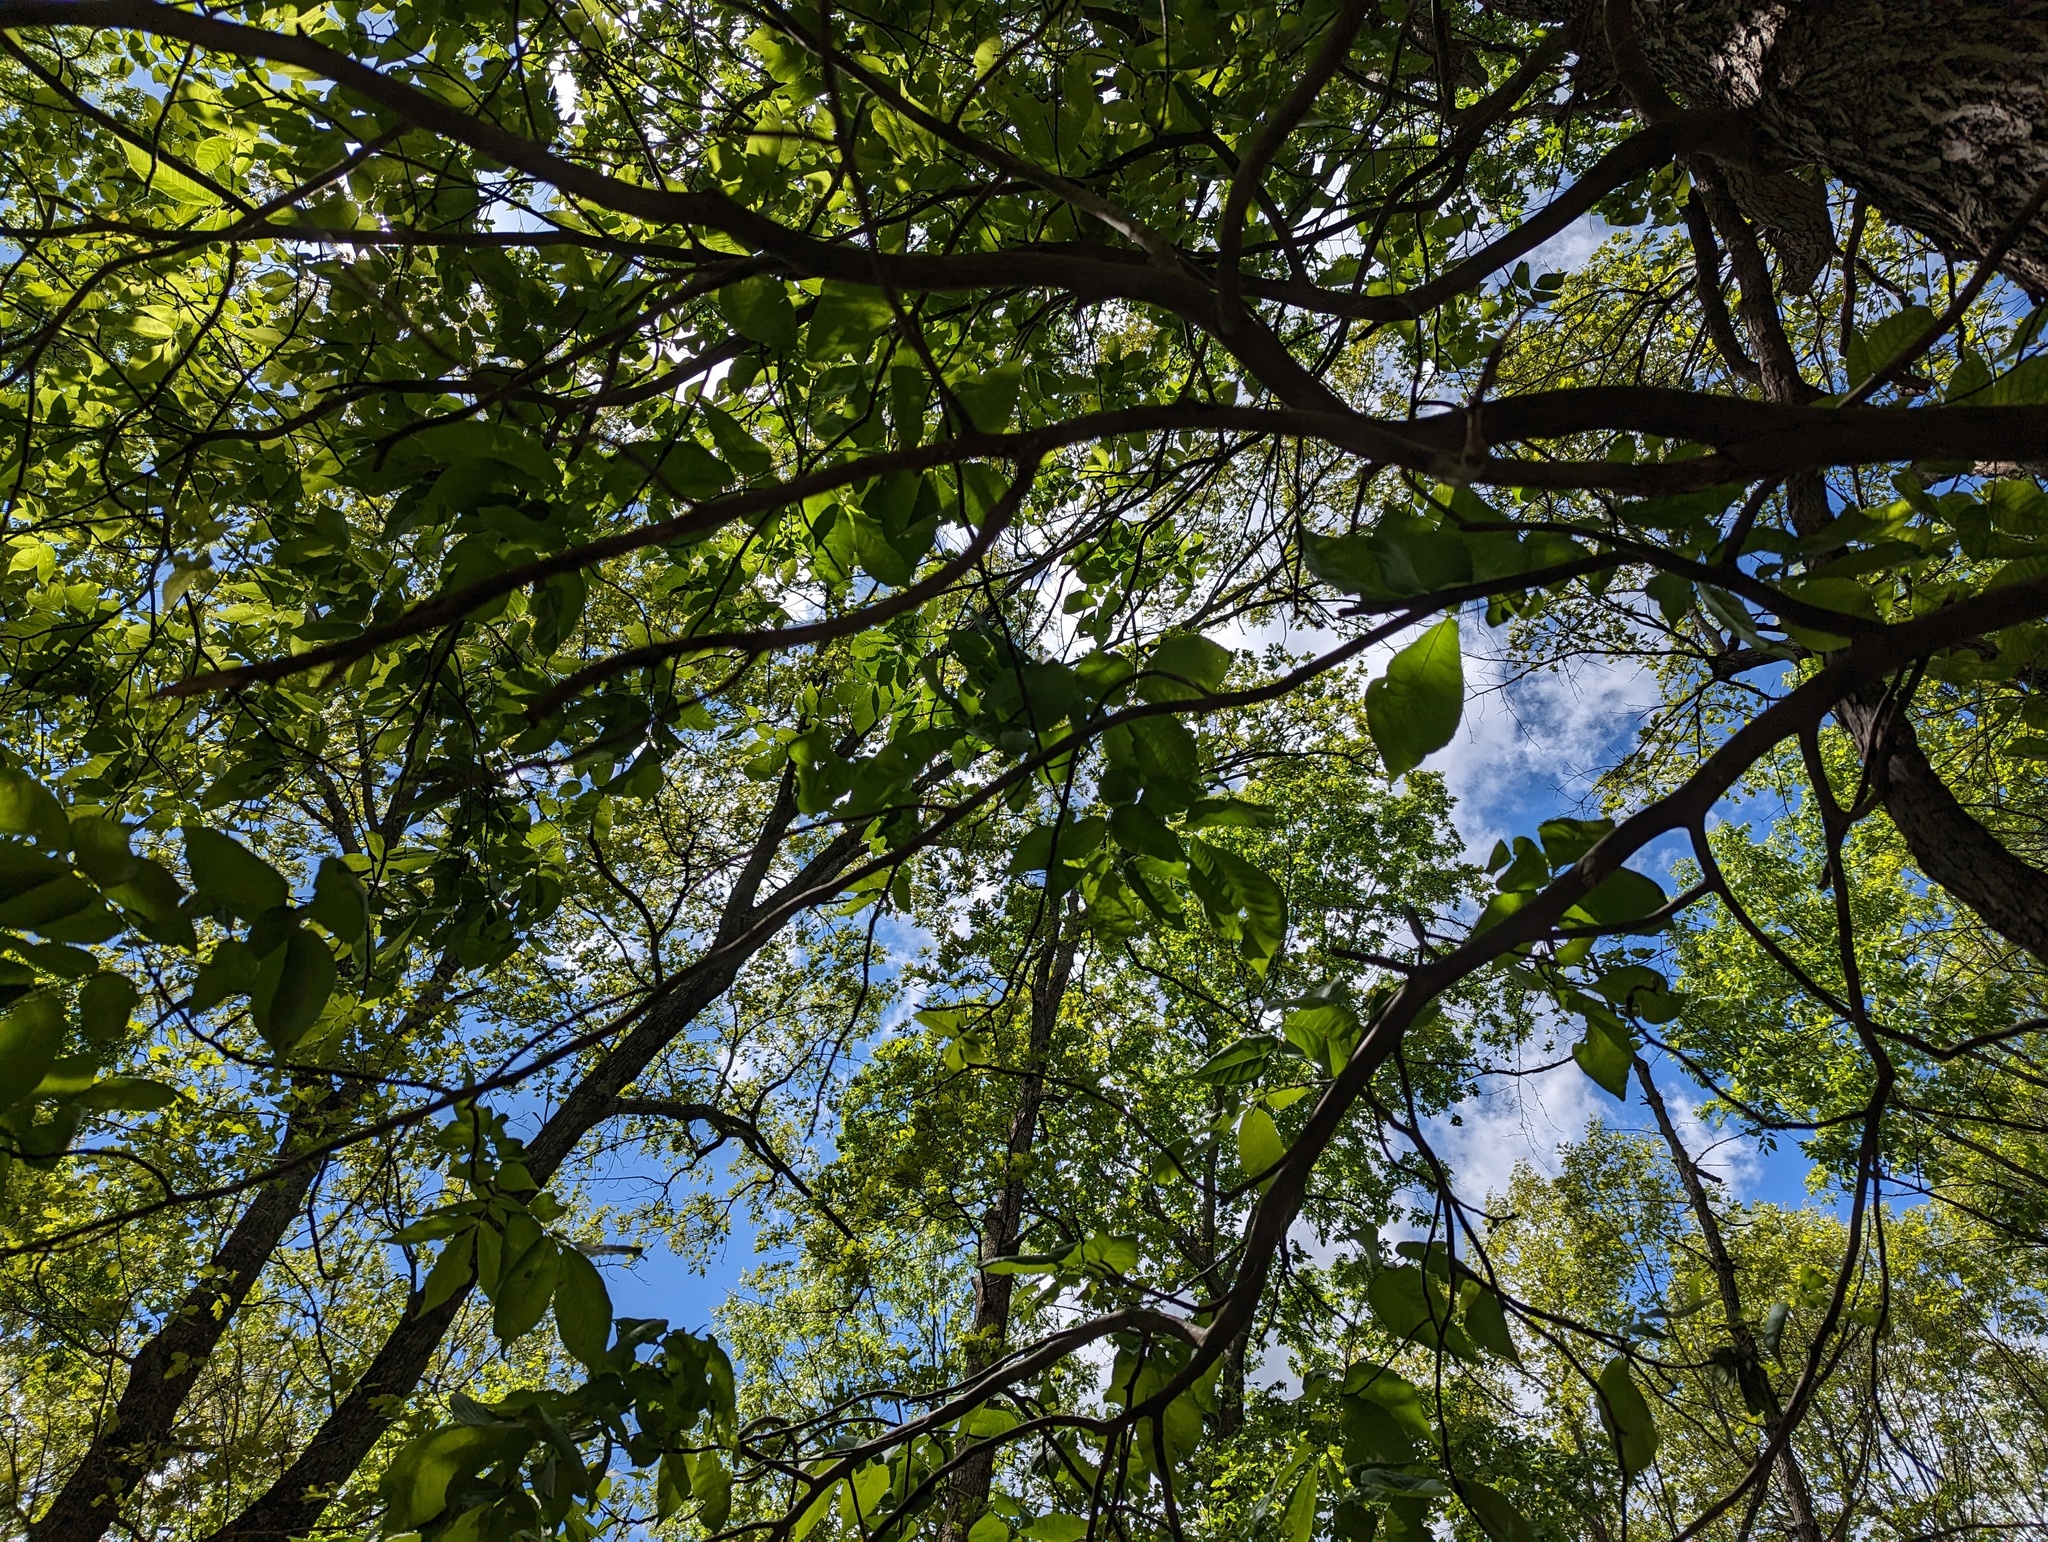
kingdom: Plantae
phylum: Tracheophyta
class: Magnoliopsida
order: Fagales
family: Juglandaceae
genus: Carya
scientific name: Carya glabra
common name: Pignut hickory
